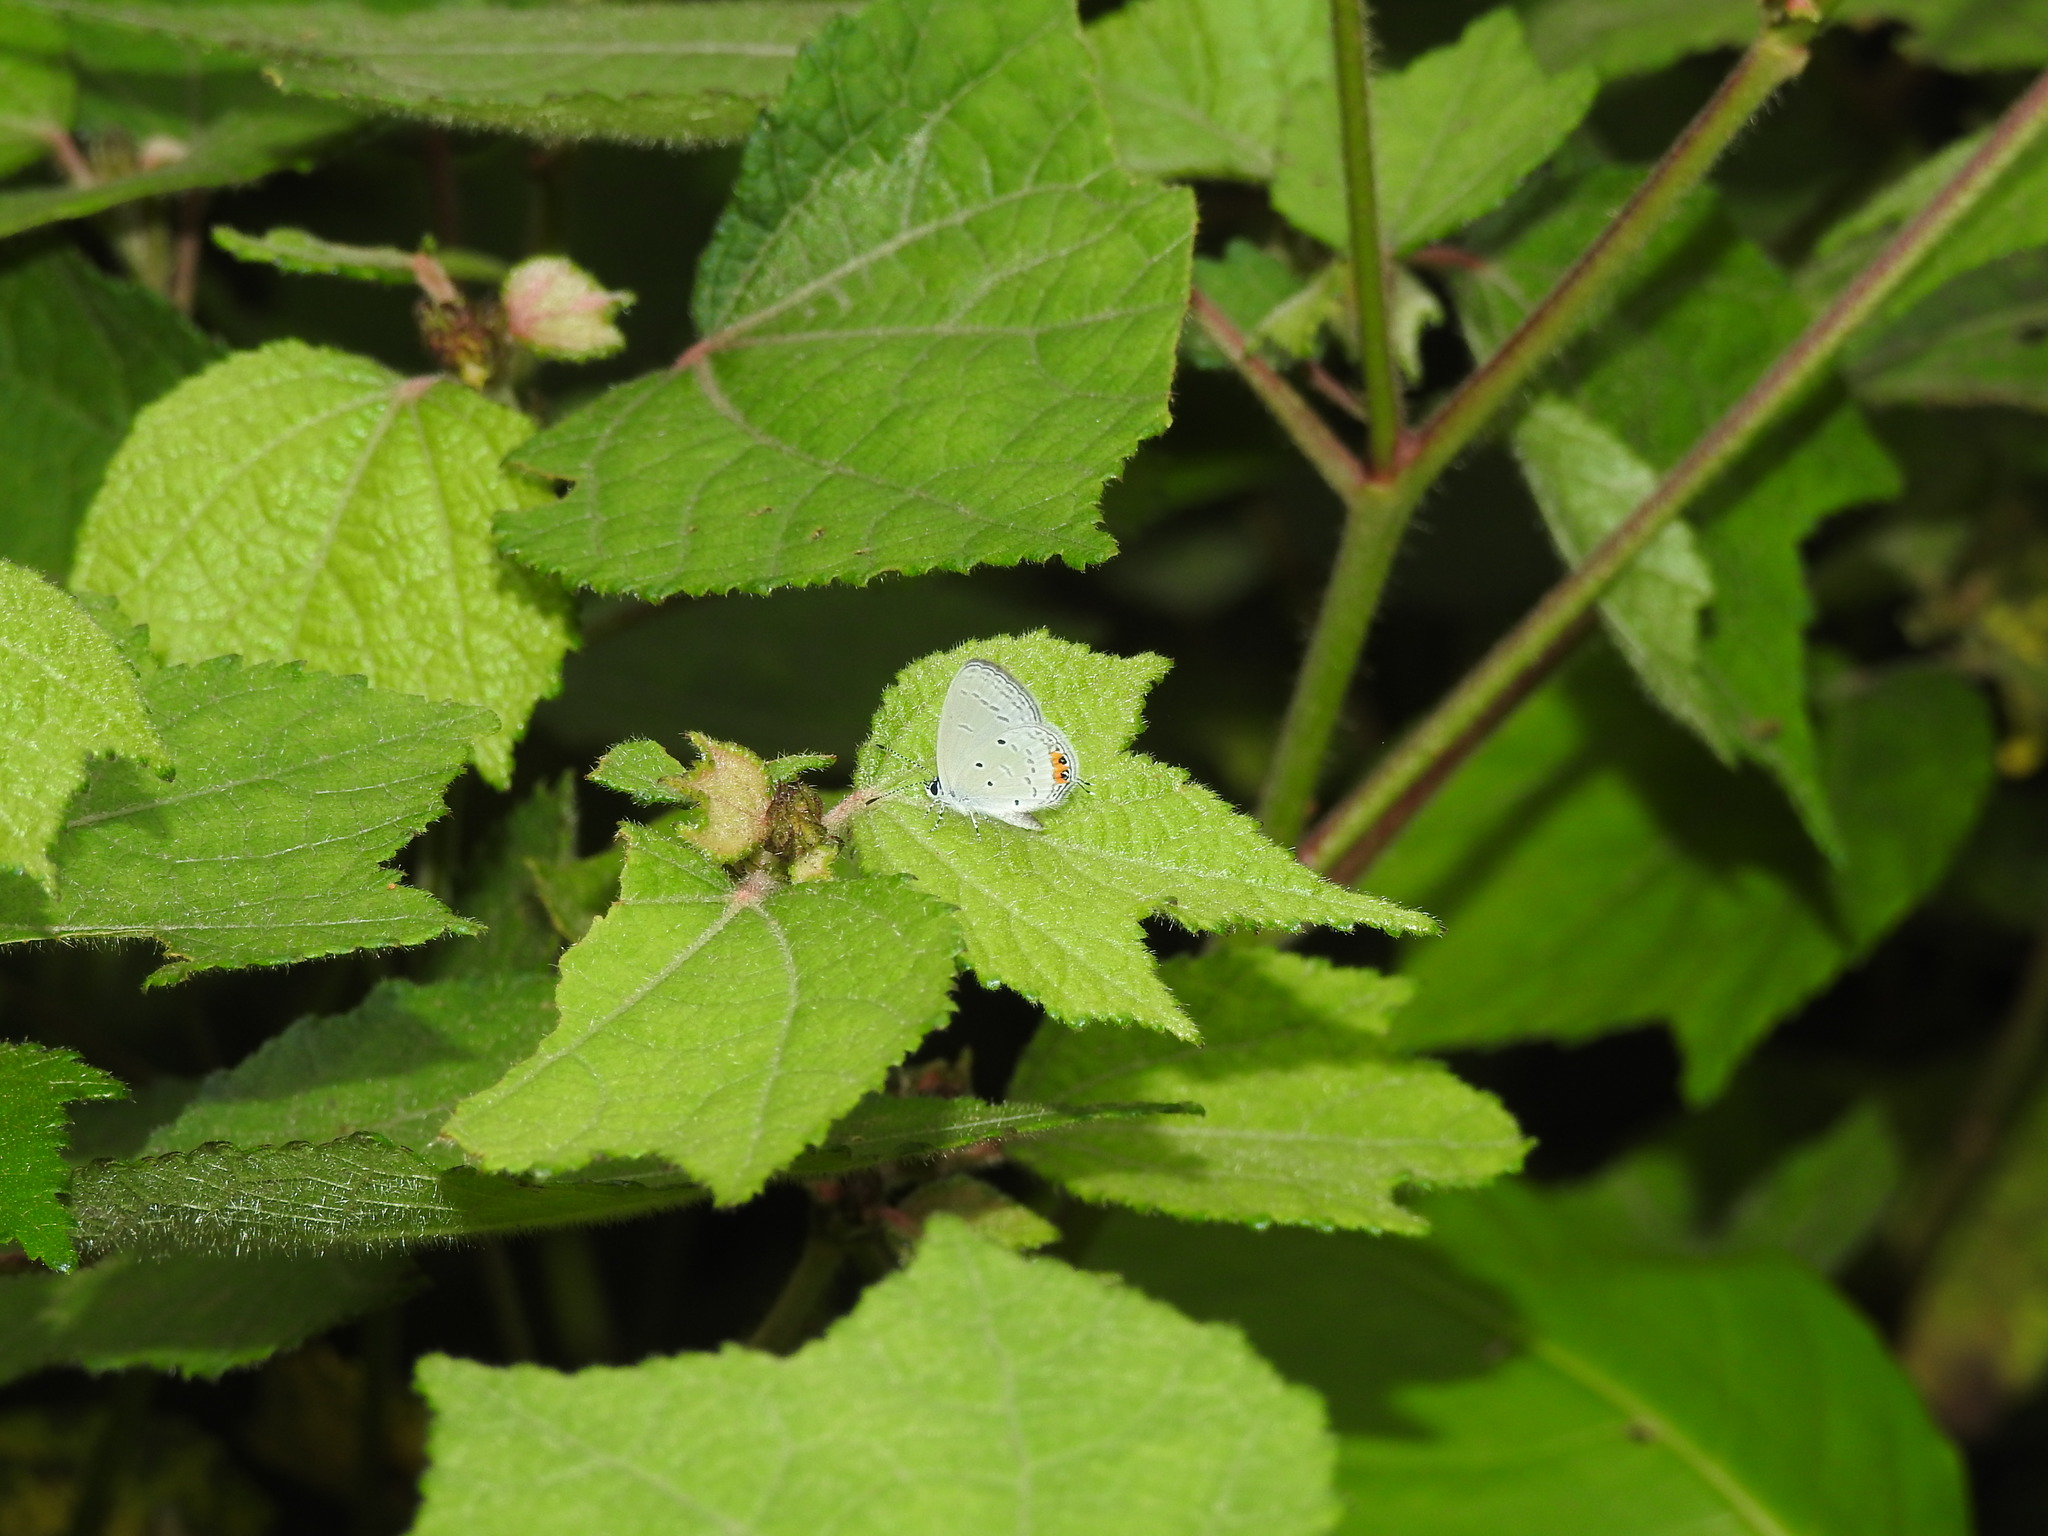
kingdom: Animalia
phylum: Arthropoda
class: Insecta
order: Lepidoptera
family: Lycaenidae
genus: Everes
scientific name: Everes lacturnus
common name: Orange-tipped pea-blue
